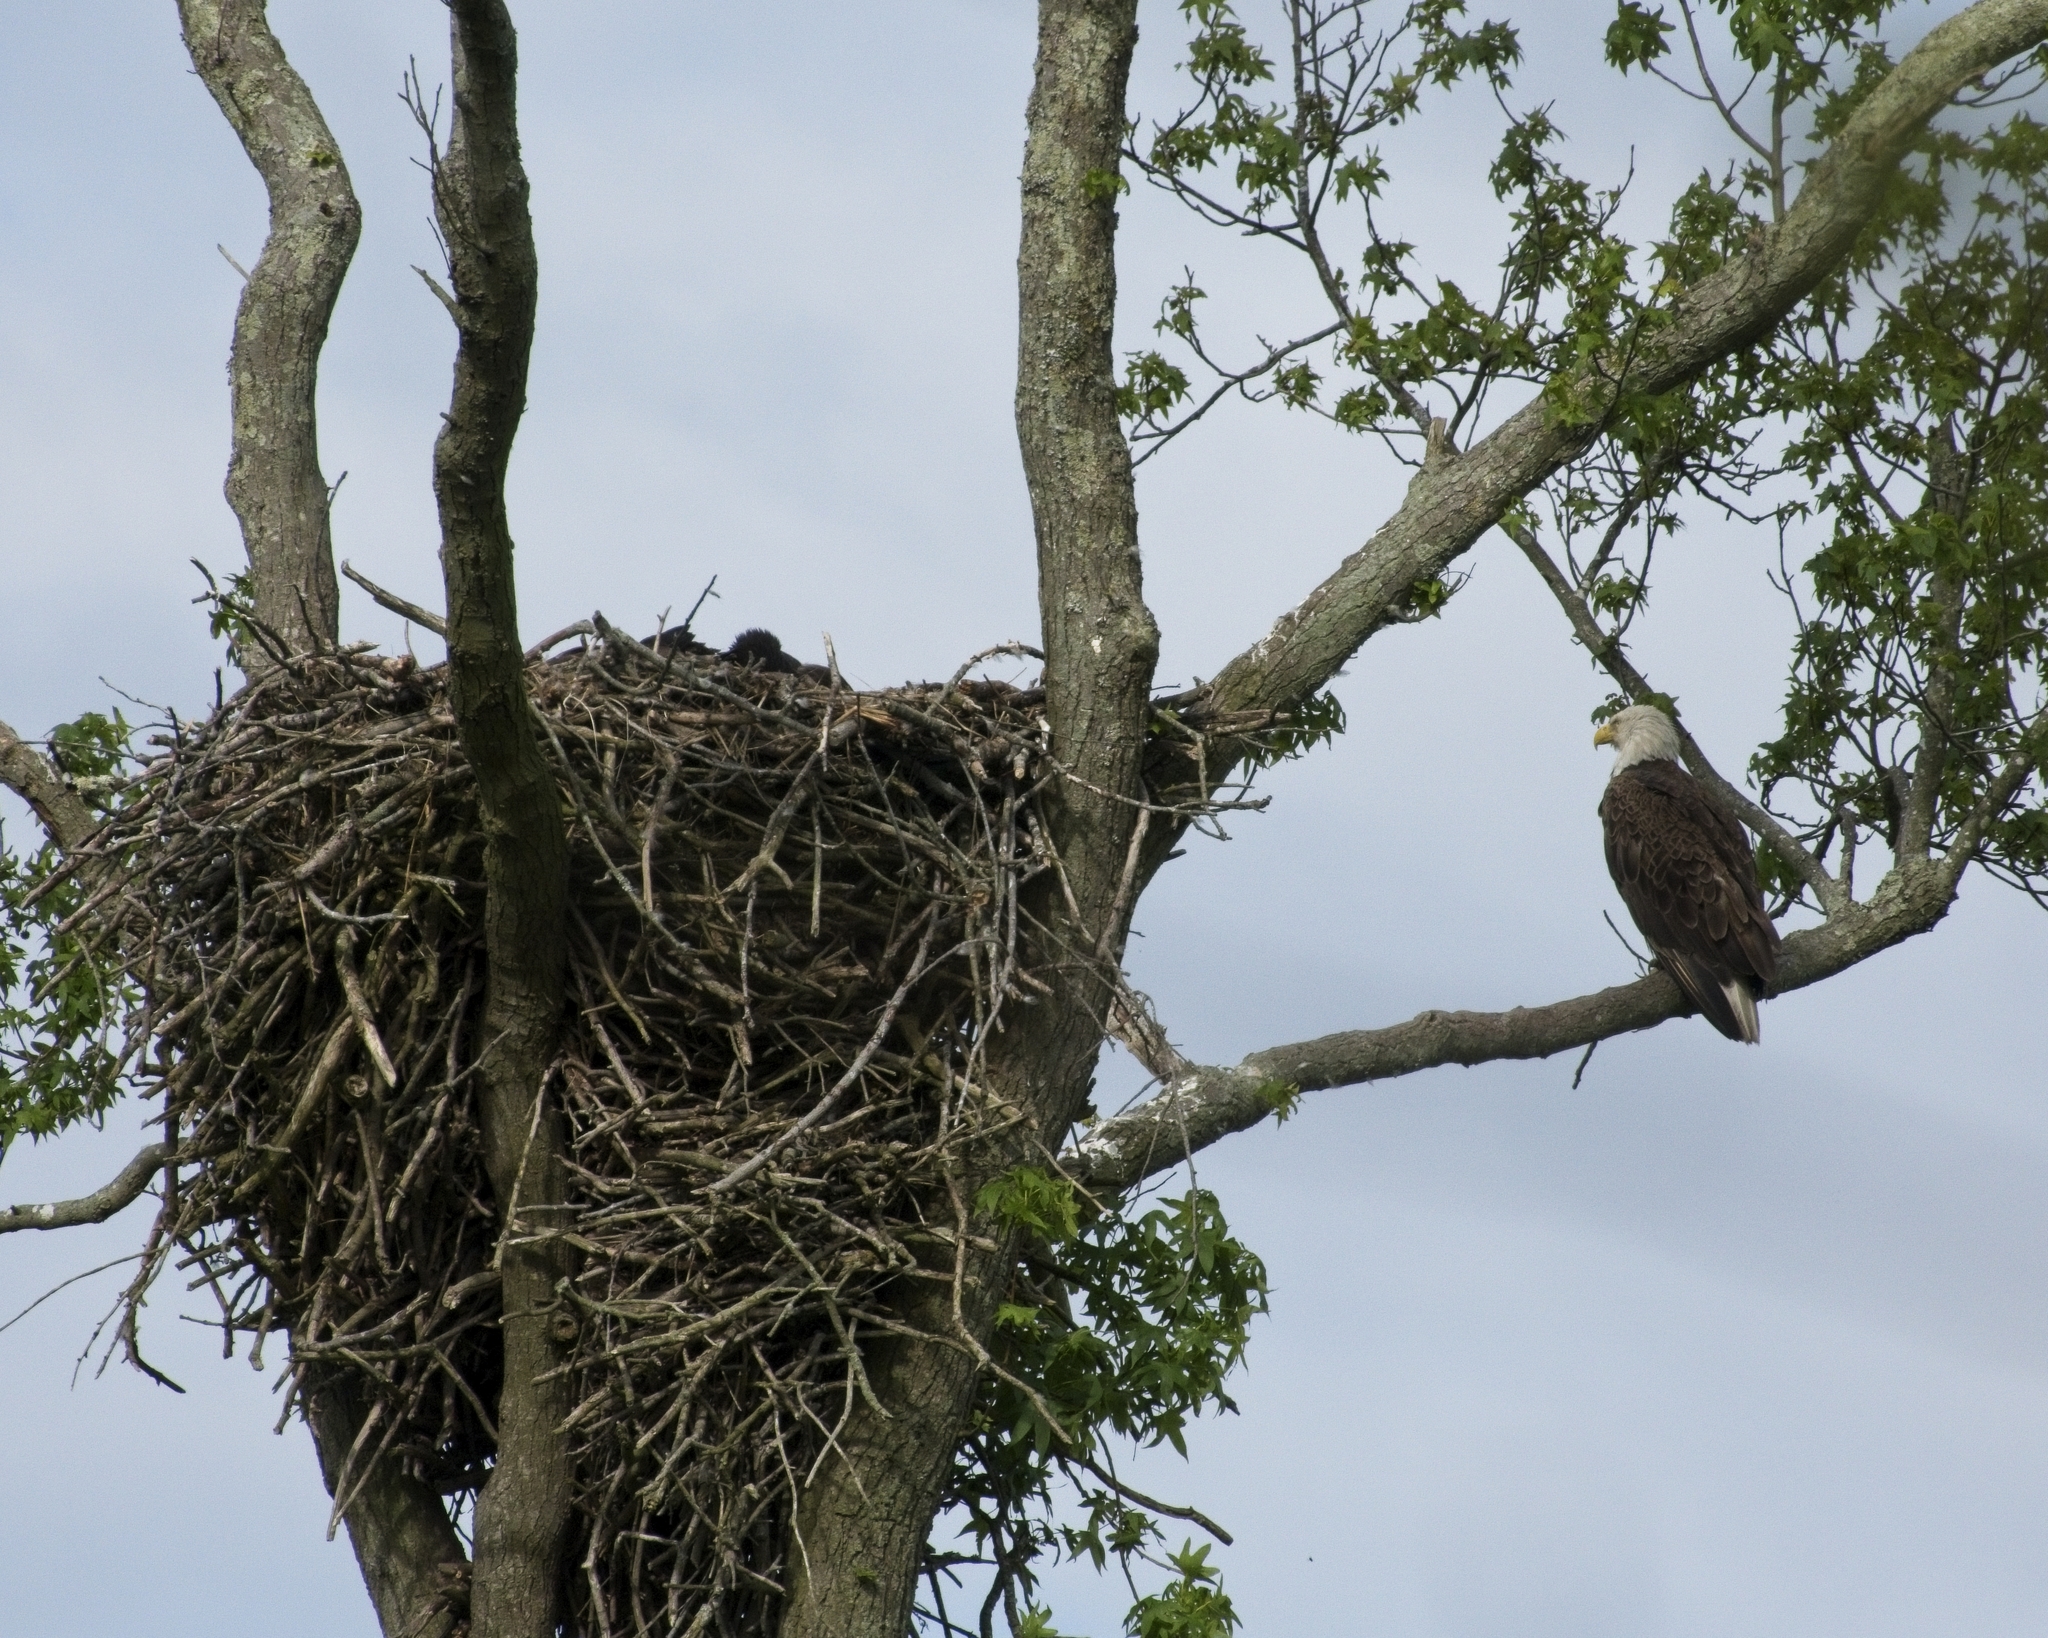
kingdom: Animalia
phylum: Chordata
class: Aves
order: Accipitriformes
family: Accipitridae
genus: Haliaeetus
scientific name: Haliaeetus leucocephalus
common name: Bald eagle
